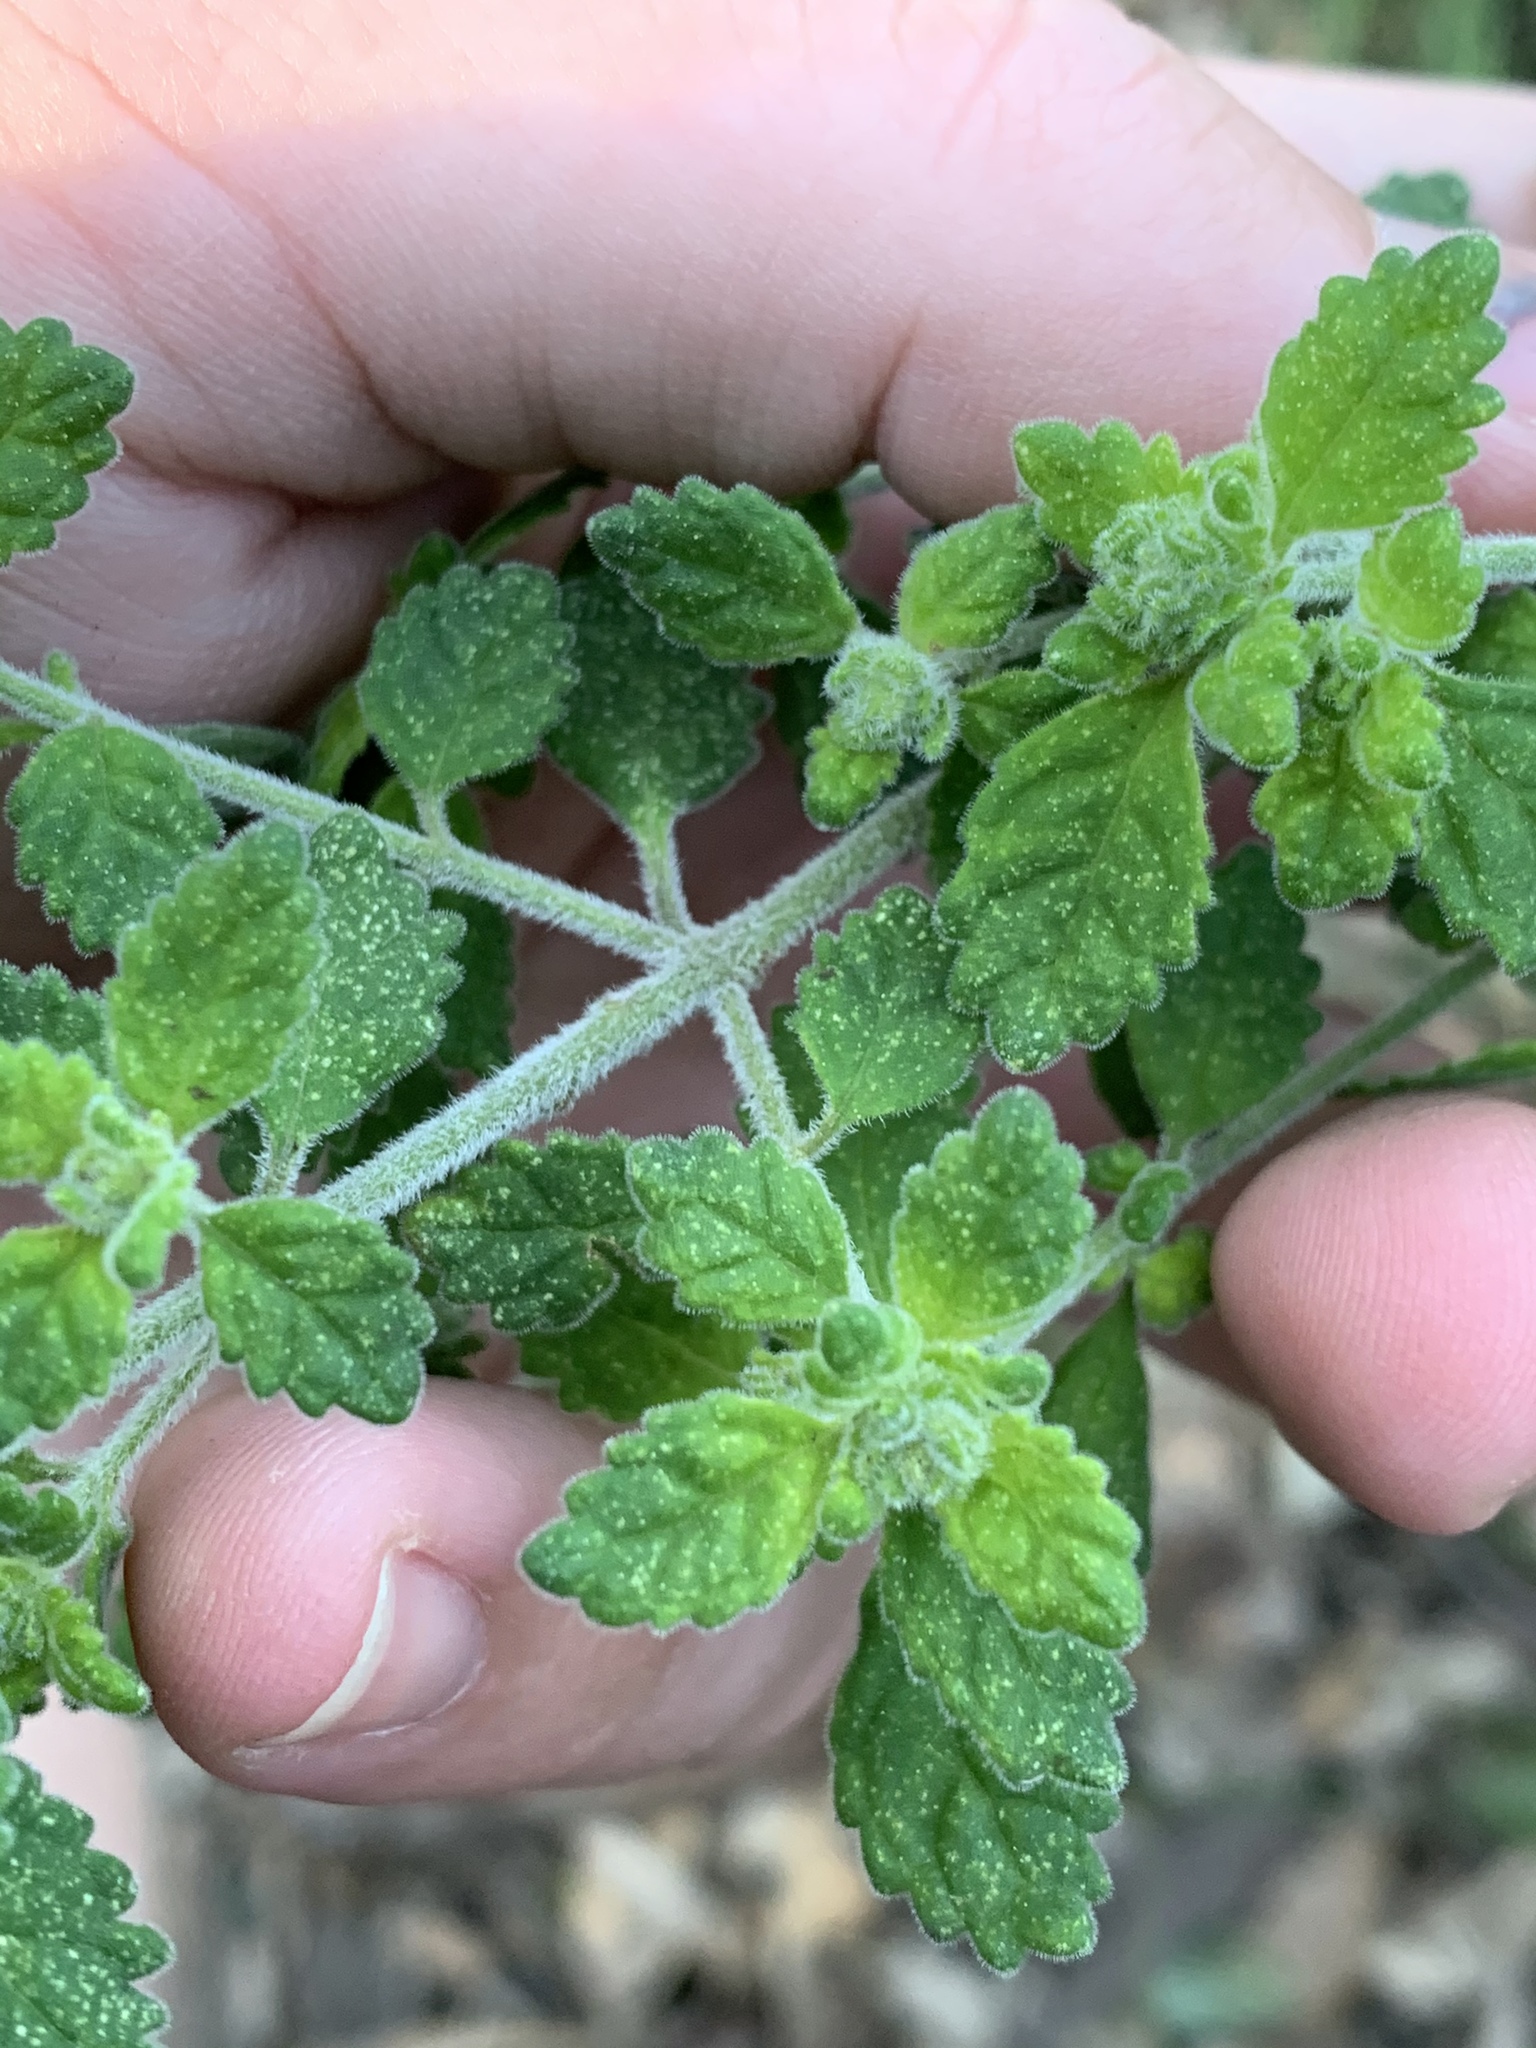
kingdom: Plantae
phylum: Tracheophyta
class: Magnoliopsida
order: Lamiales
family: Lamiaceae
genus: Prostanthera
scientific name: Prostanthera incana
